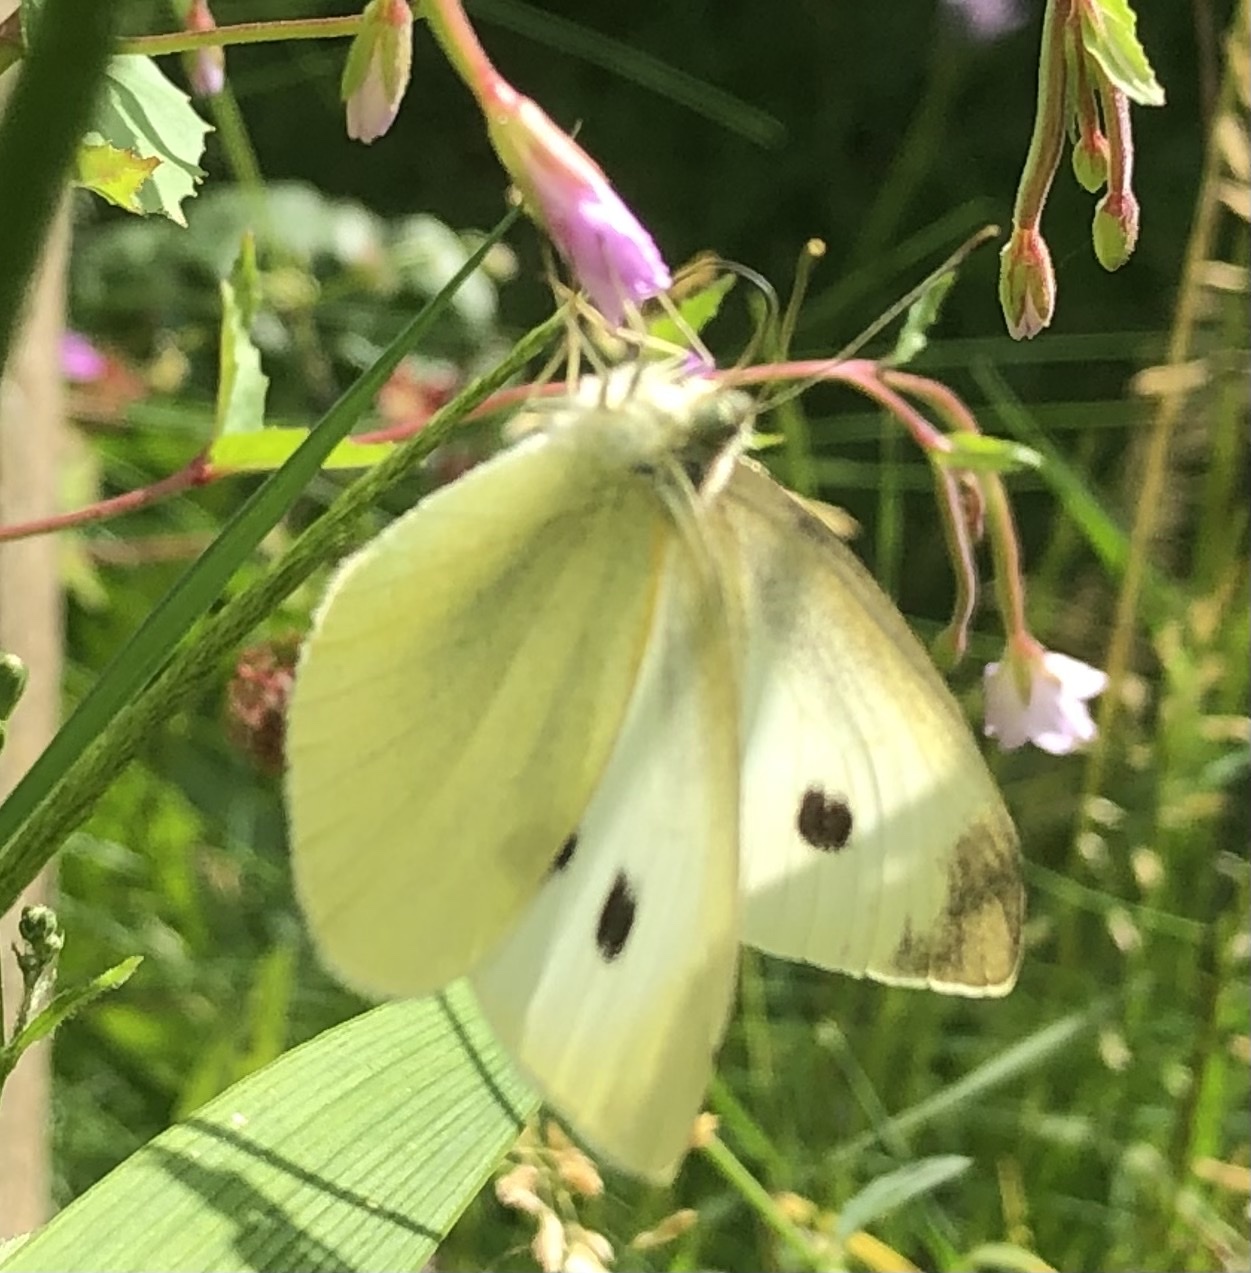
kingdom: Animalia
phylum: Arthropoda
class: Insecta
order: Lepidoptera
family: Pieridae
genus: Pieris
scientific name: Pieris rapae
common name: Small white
